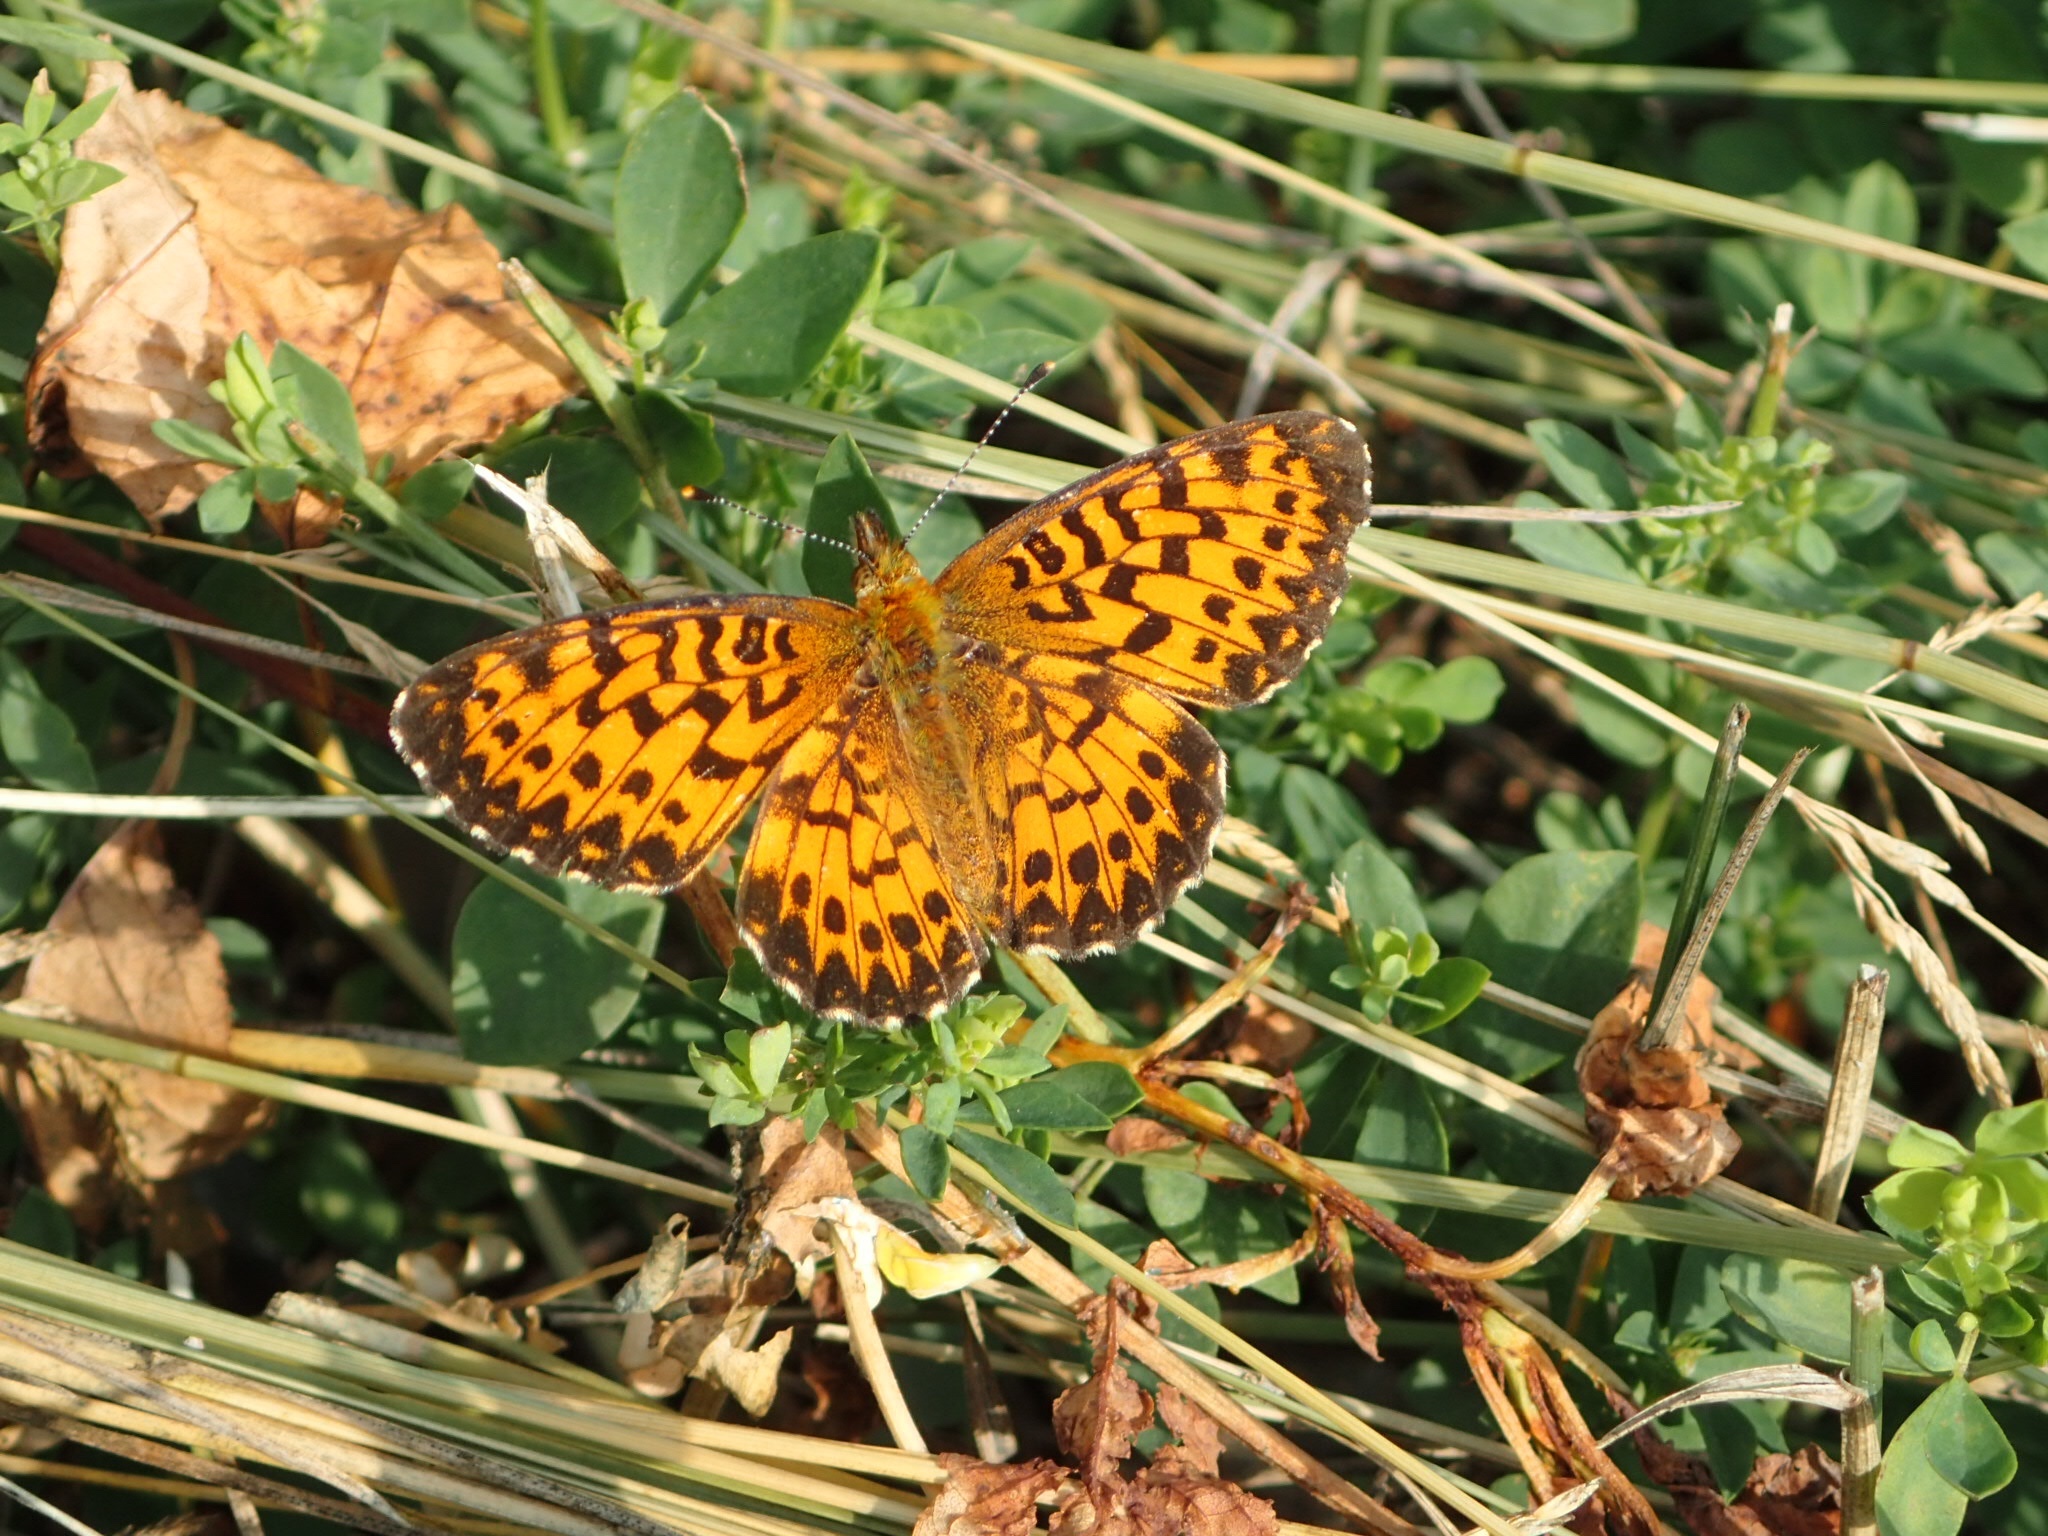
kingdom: Animalia
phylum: Arthropoda
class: Insecta
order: Lepidoptera
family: Nymphalidae
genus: Boloria
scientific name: Boloria chariclea
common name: Arctic fritillary
